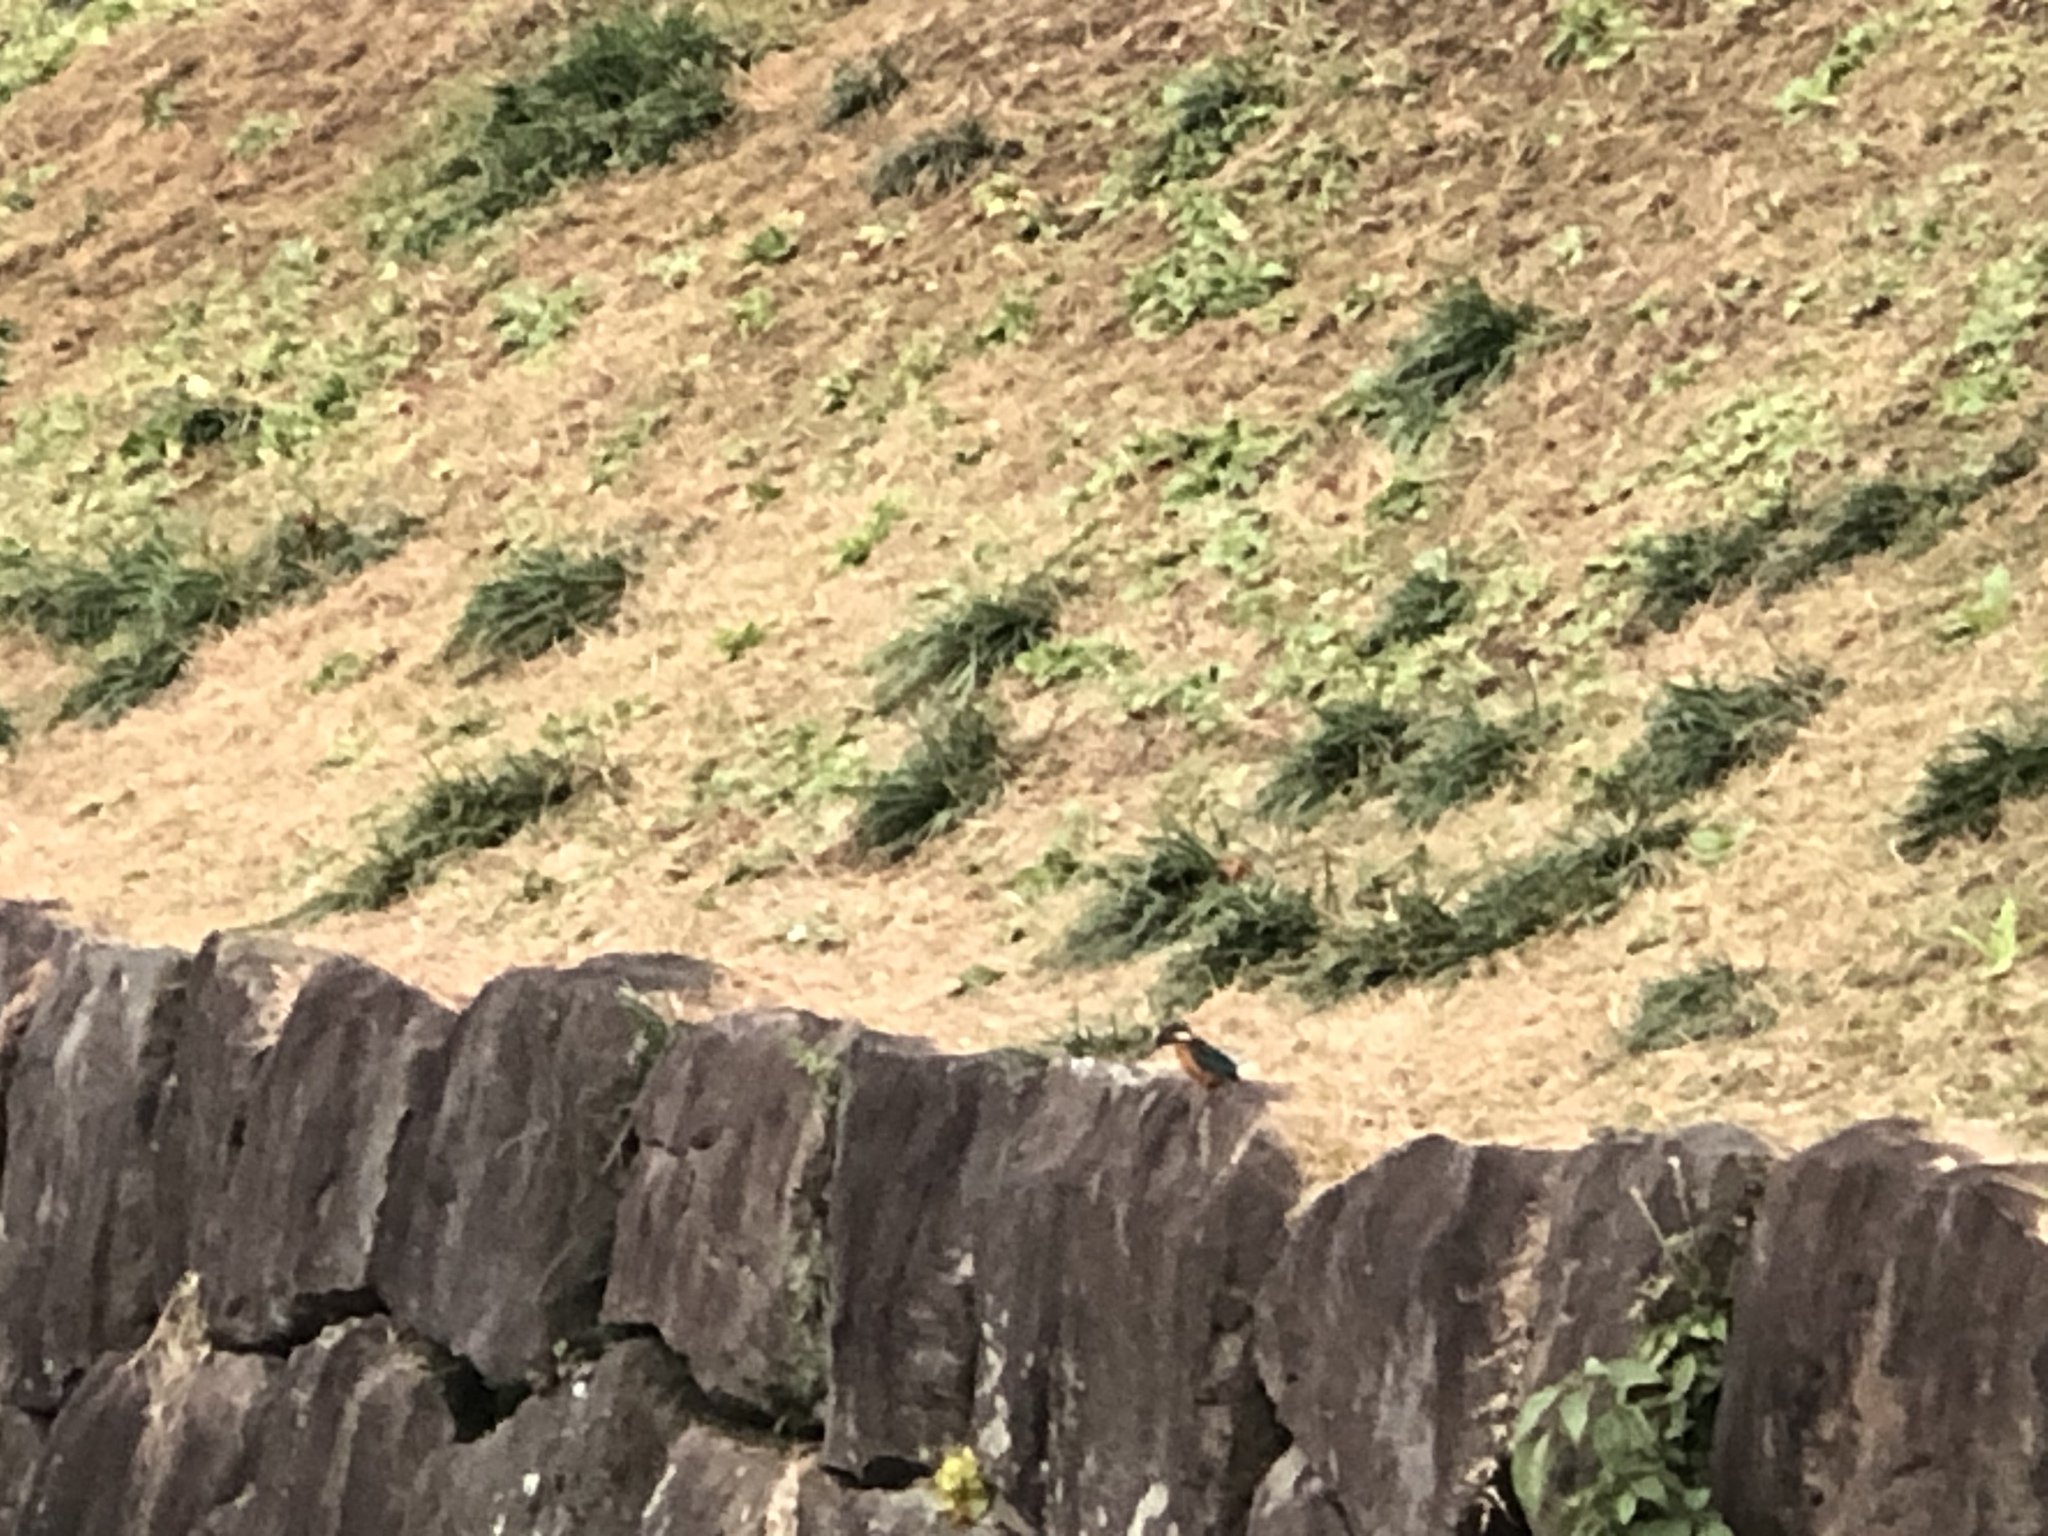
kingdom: Animalia
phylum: Chordata
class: Aves
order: Coraciiformes
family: Alcedinidae
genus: Alcedo
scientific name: Alcedo atthis
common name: Common kingfisher
